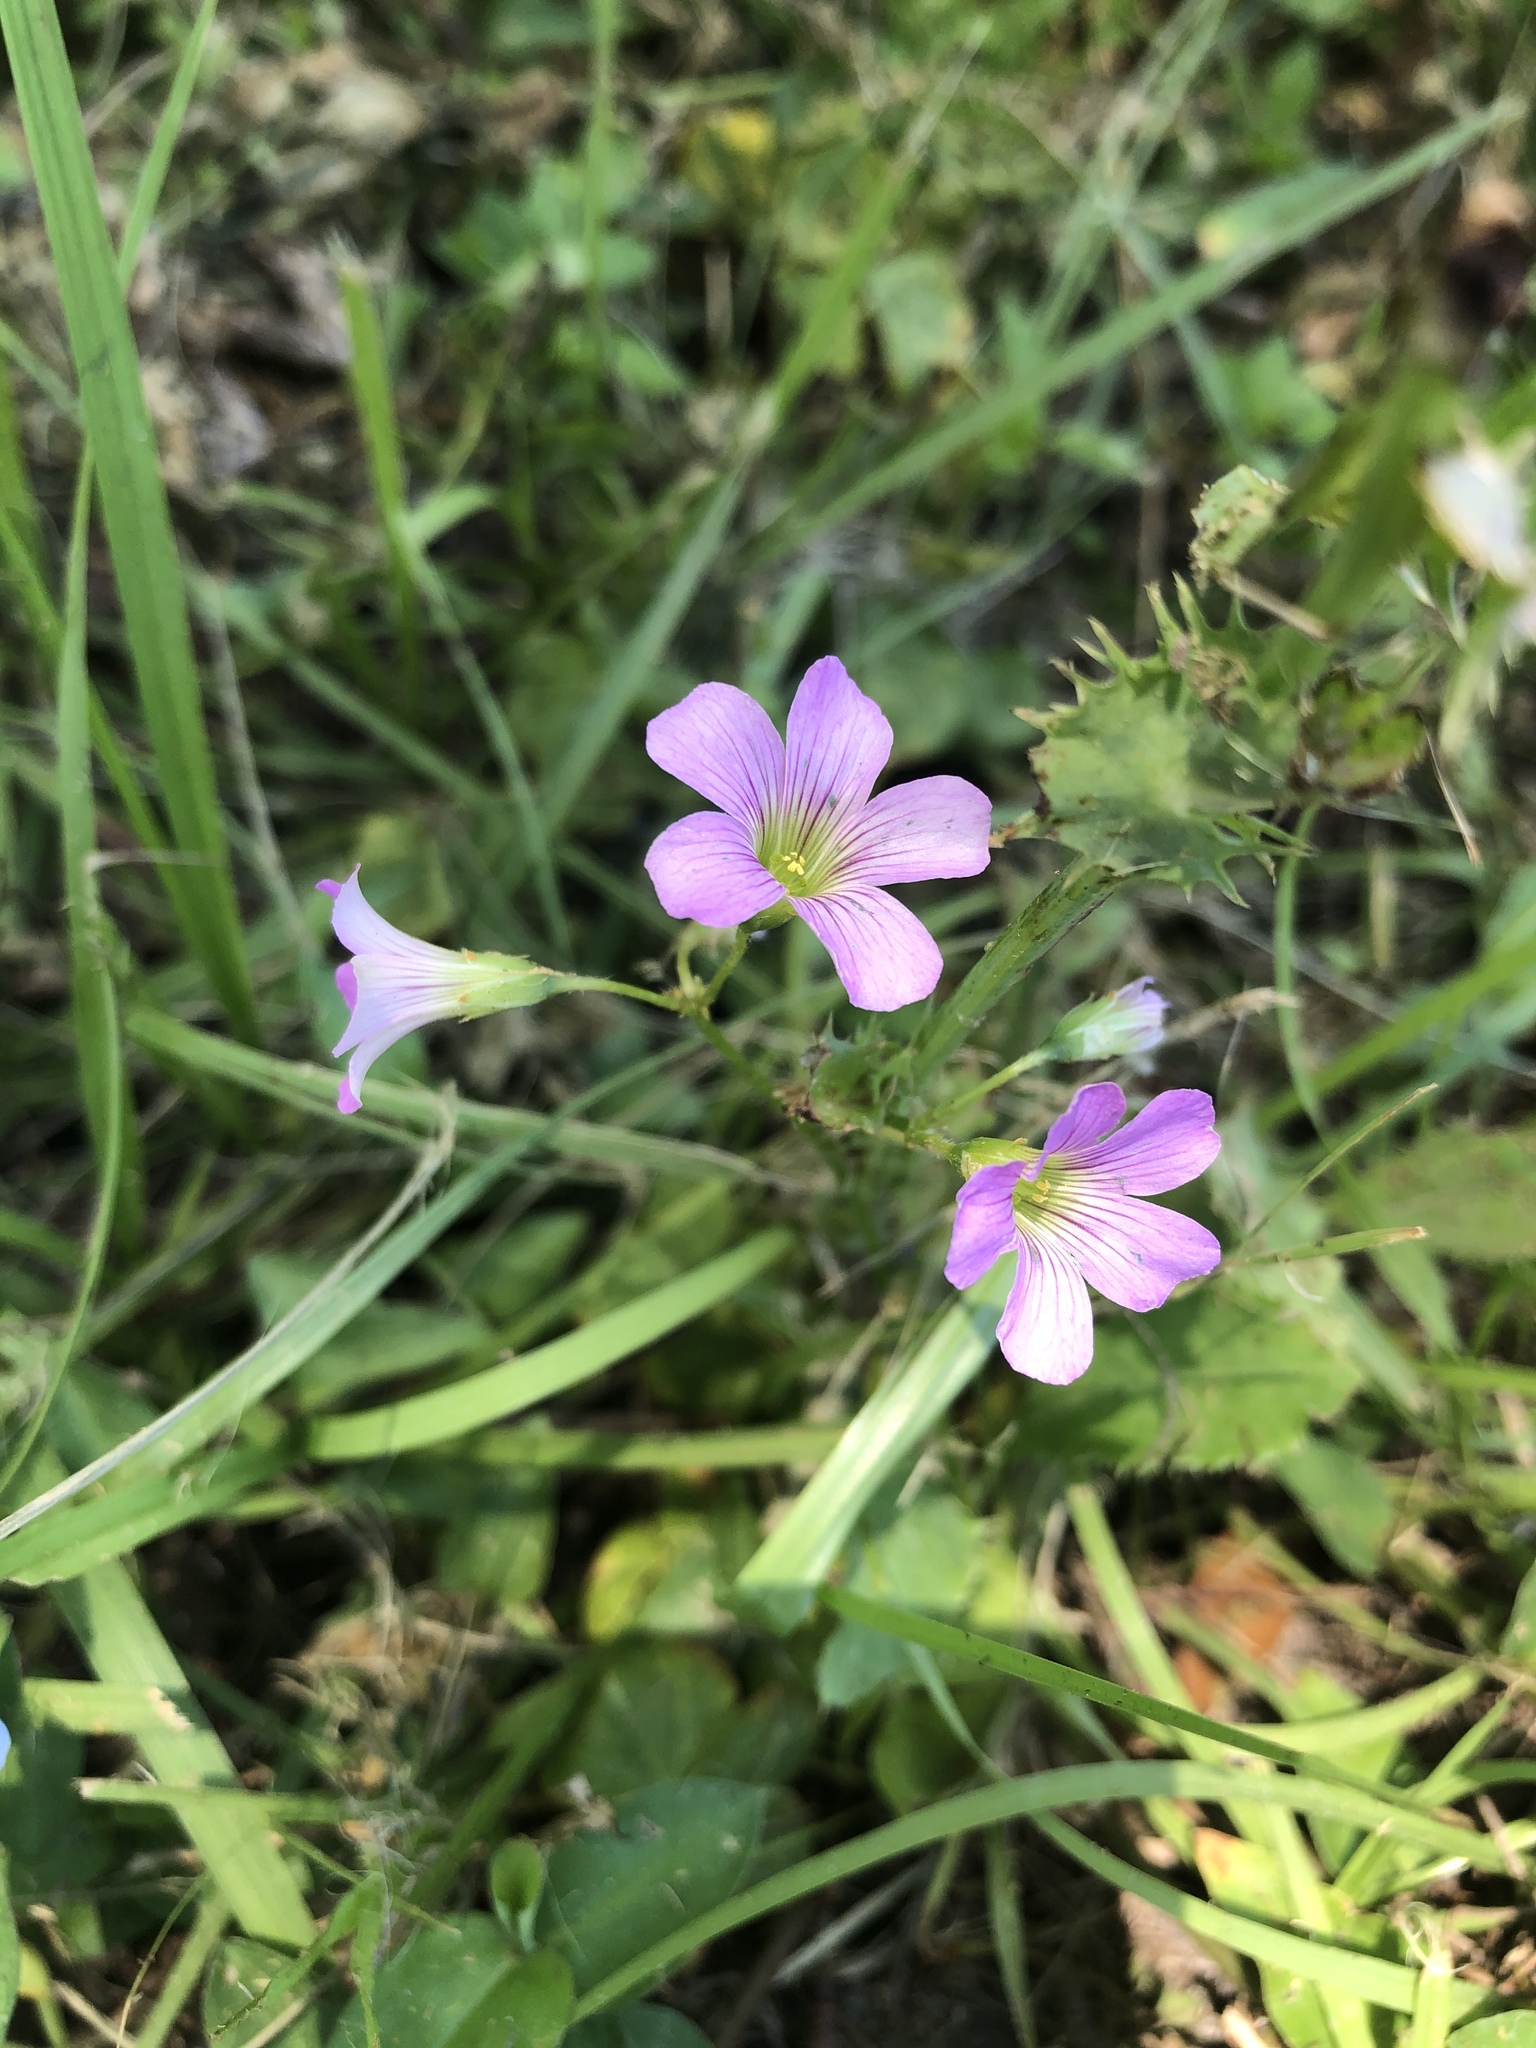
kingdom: Plantae
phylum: Tracheophyta
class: Magnoliopsida
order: Oxalidales
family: Oxalidaceae
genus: Oxalis
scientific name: Oxalis debilis
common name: Large-flowered pink-sorrel
